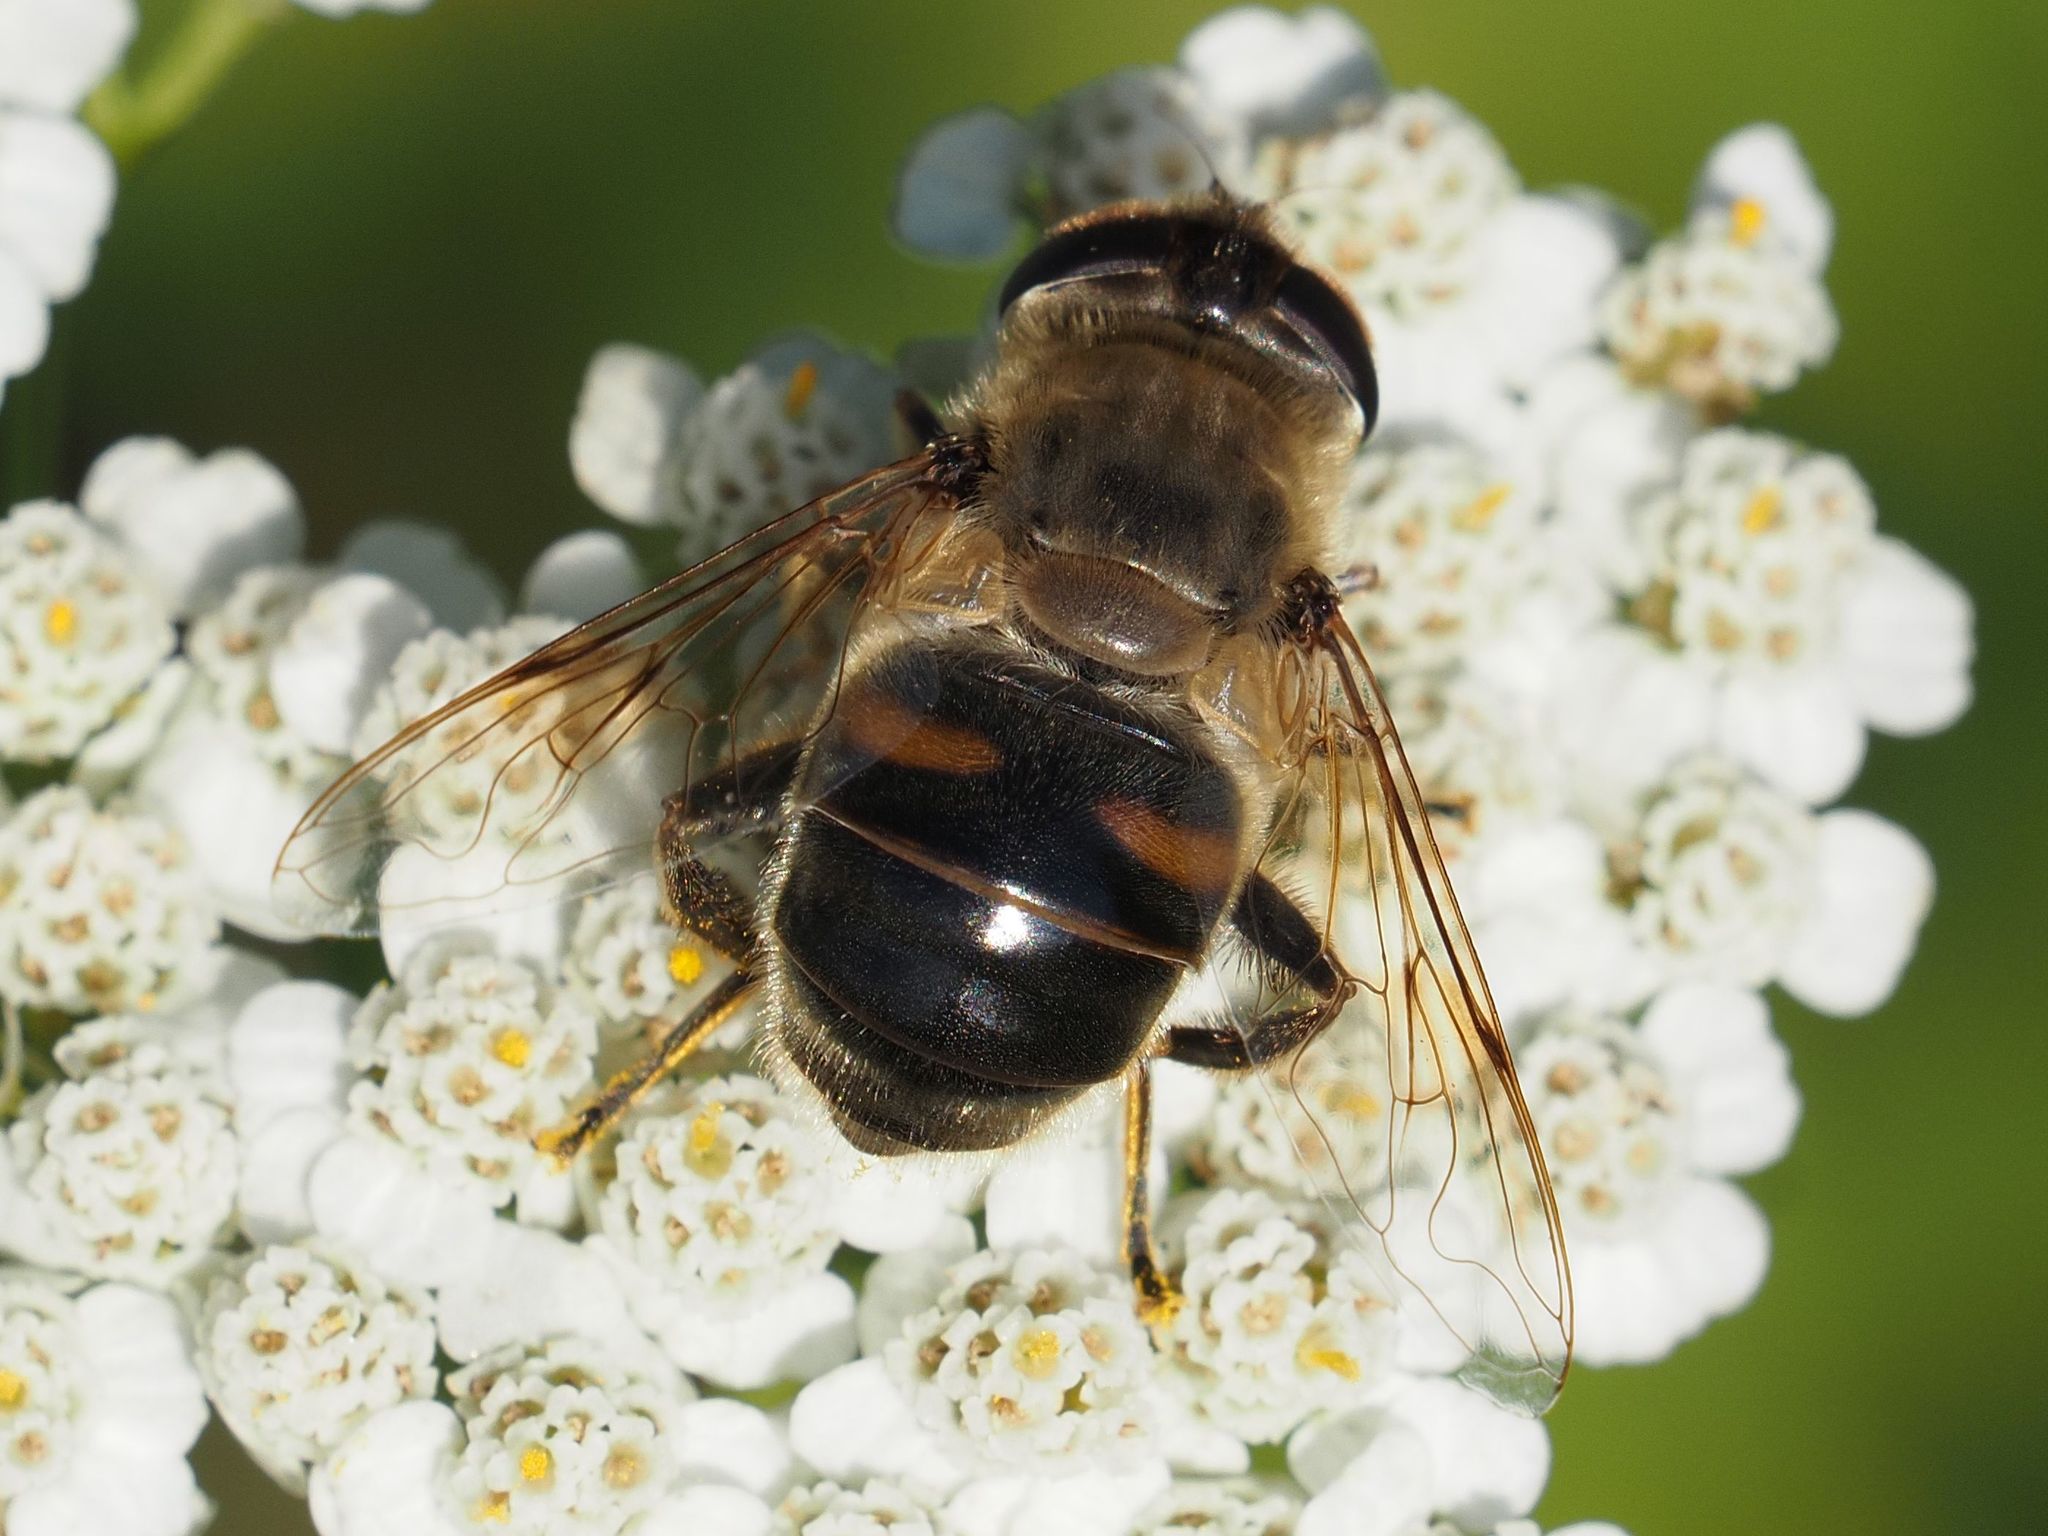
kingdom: Animalia
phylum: Arthropoda
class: Insecta
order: Diptera
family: Syrphidae
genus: Eristalis
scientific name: Eristalis tenax
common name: Drone fly
